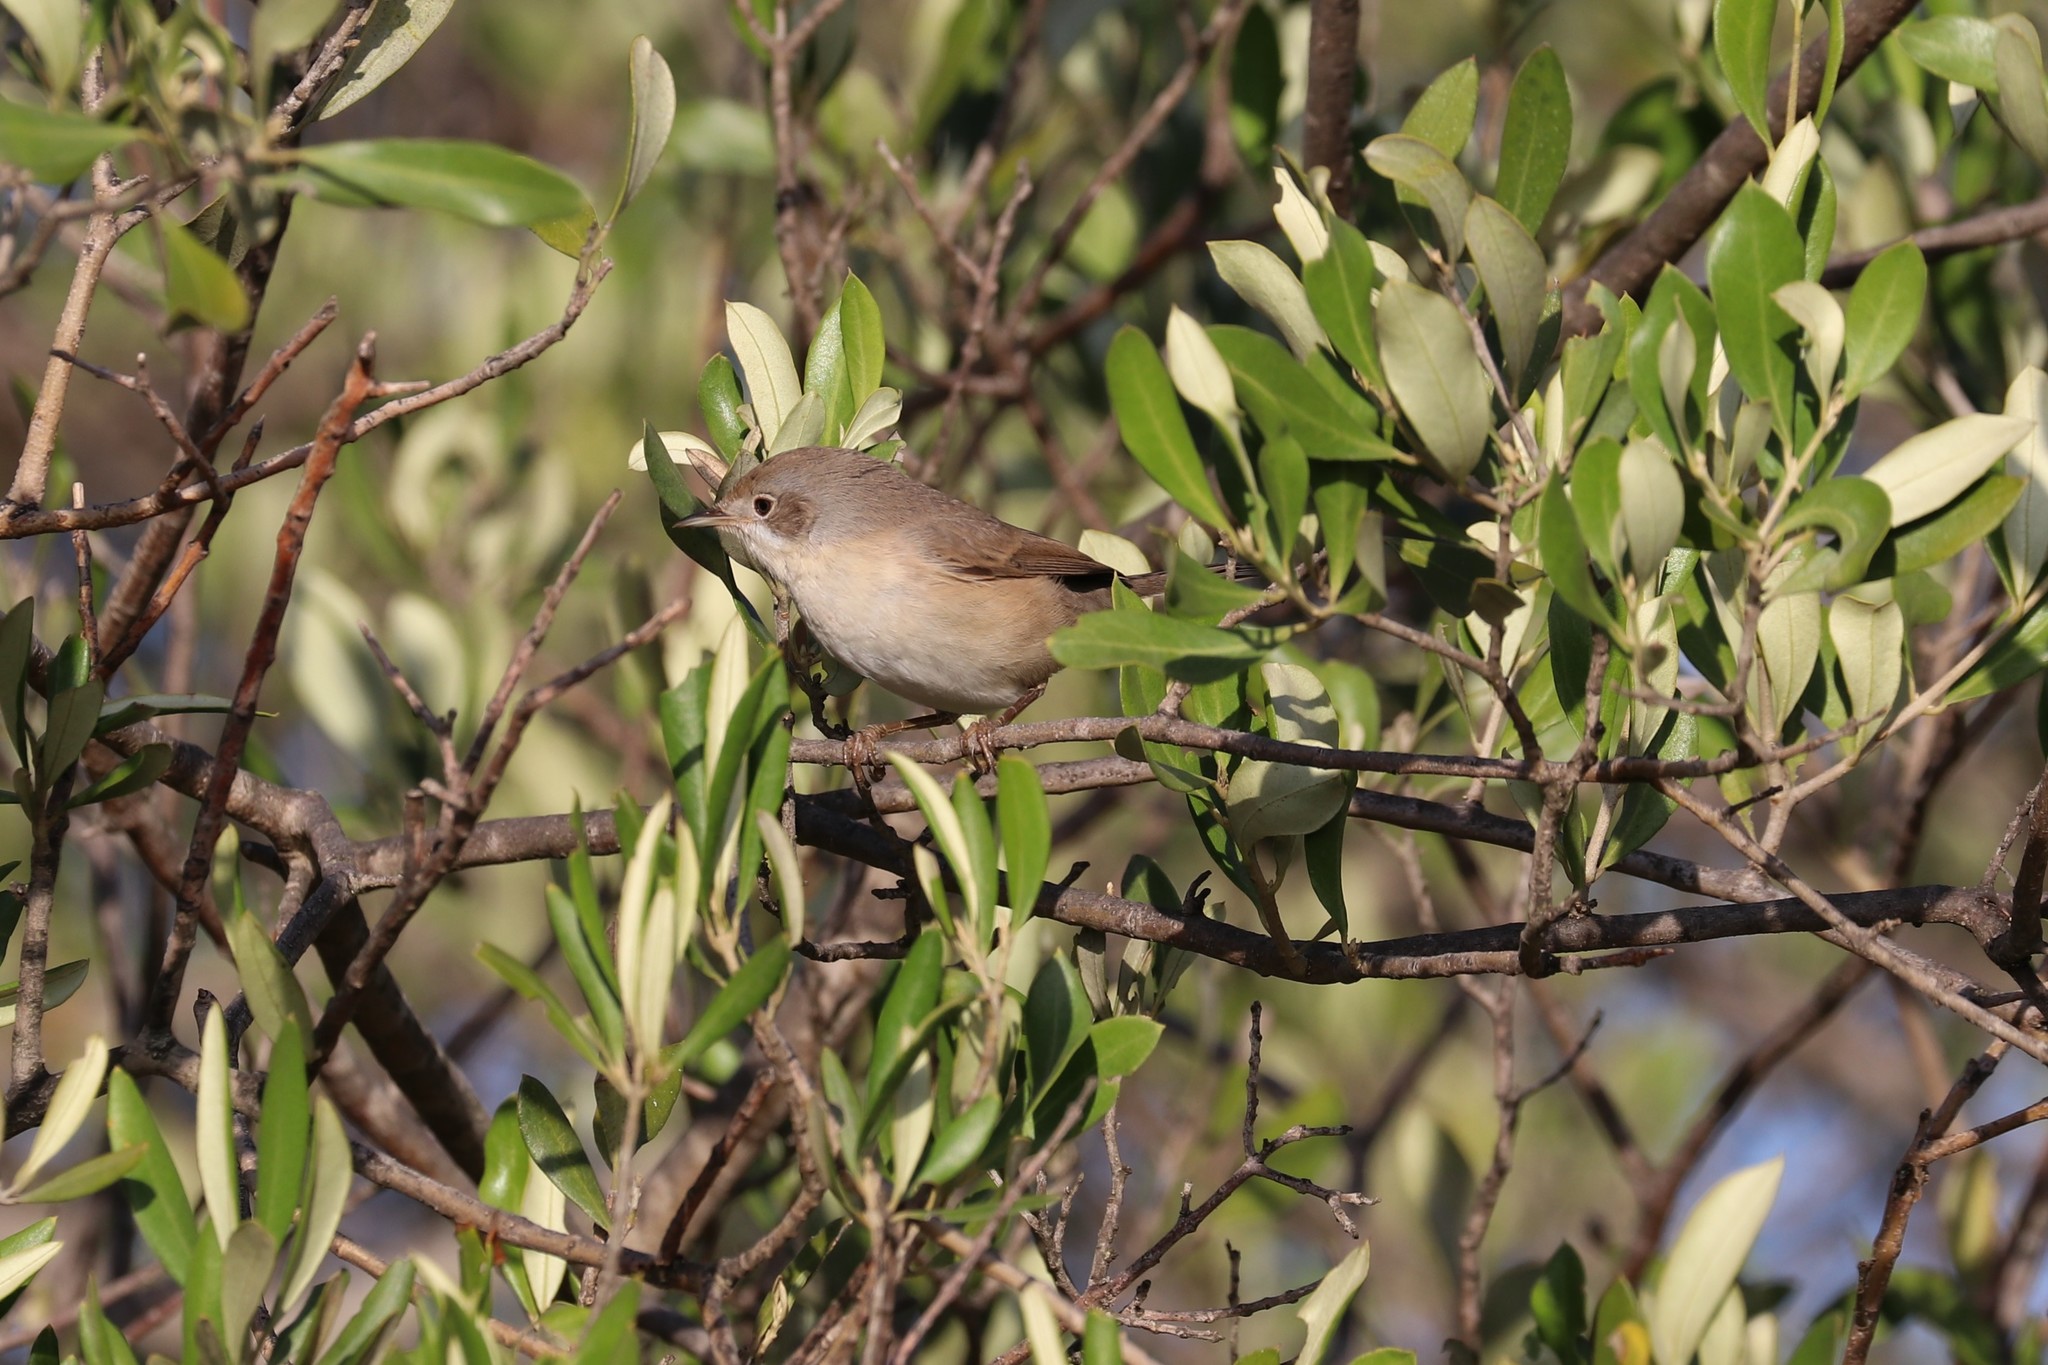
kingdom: Animalia
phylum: Chordata
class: Aves
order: Passeriformes
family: Sylviidae
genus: Curruca
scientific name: Curruca iberiae
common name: Western subalpine warbler
